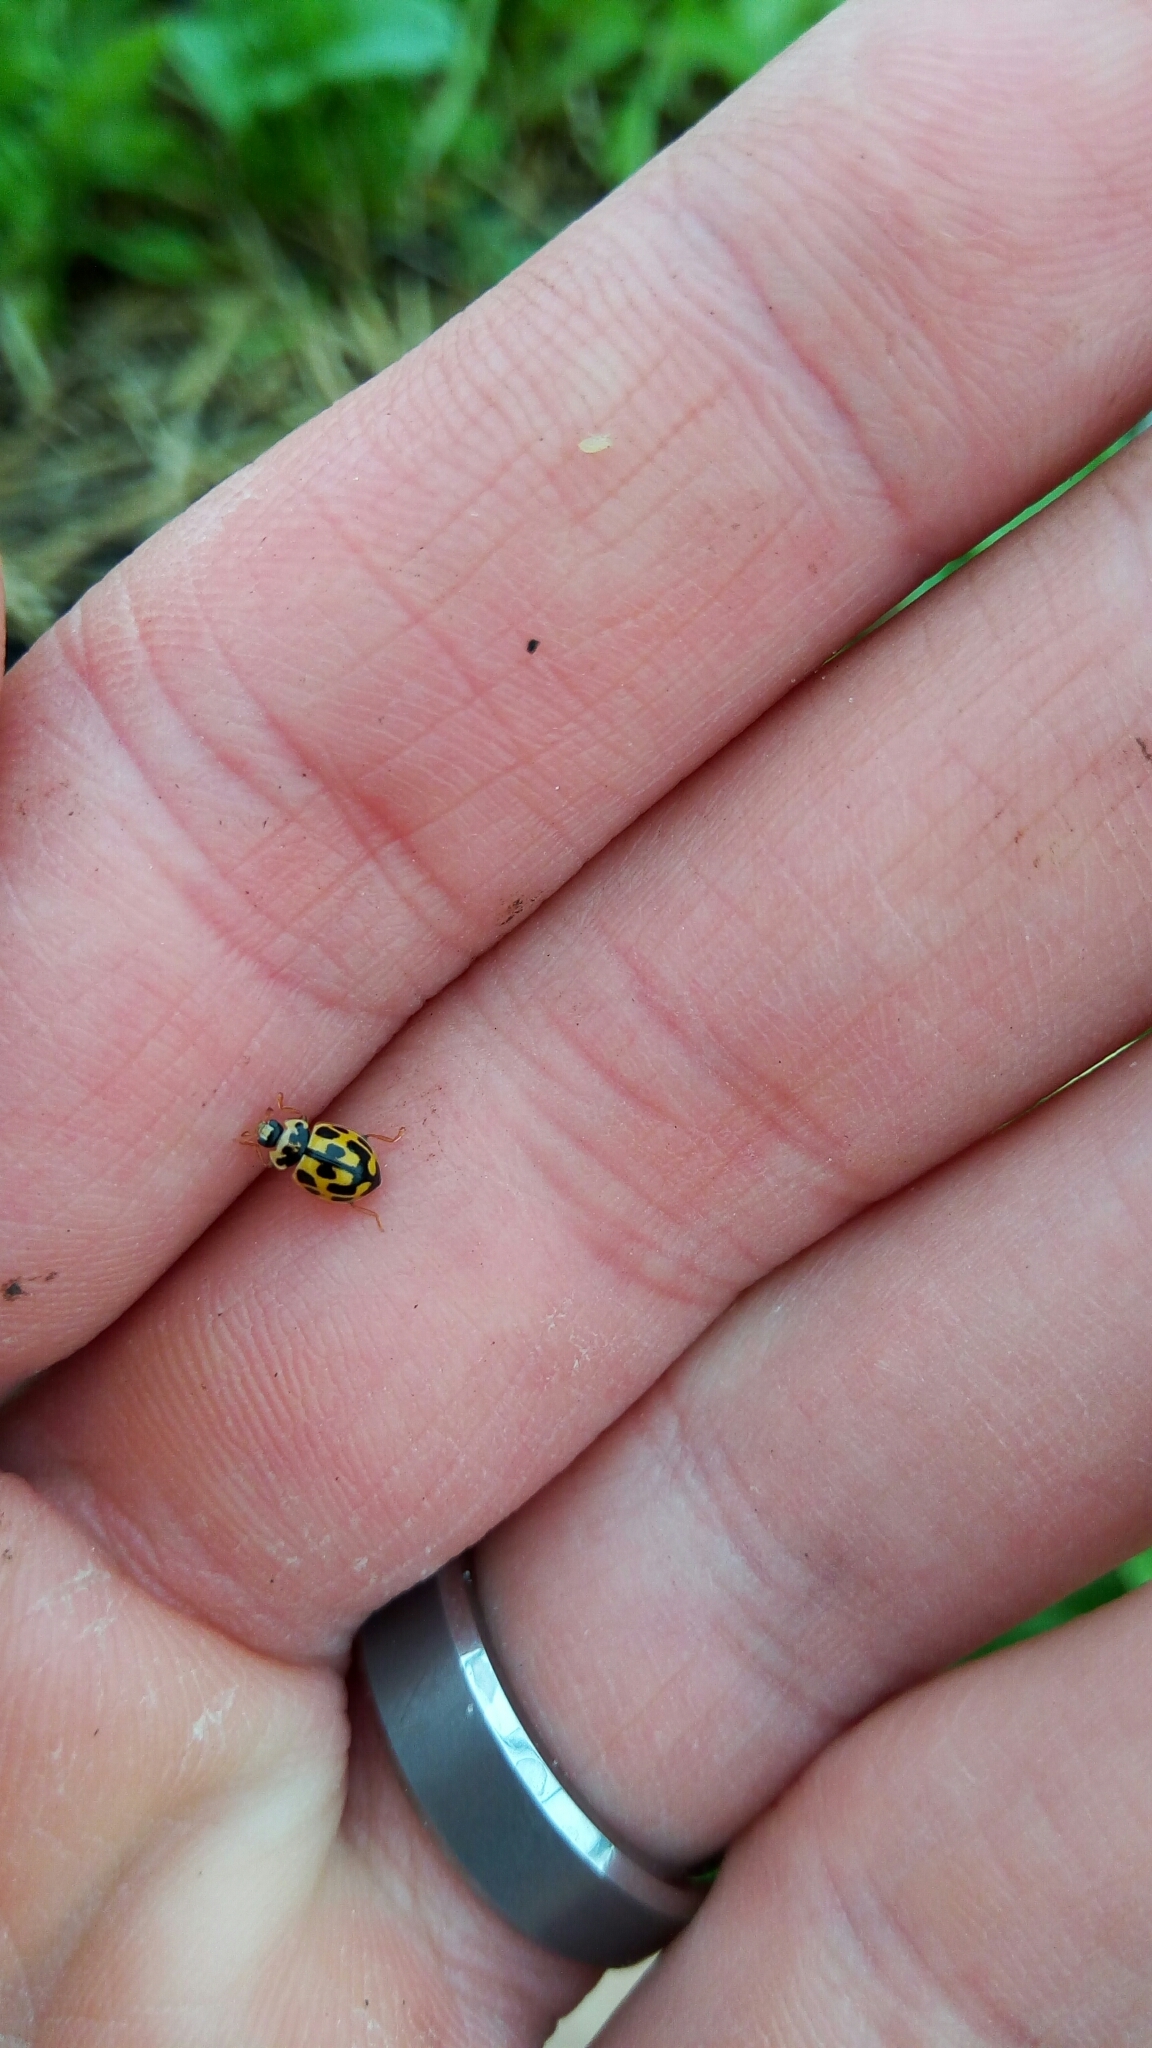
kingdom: Animalia
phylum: Arthropoda
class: Insecta
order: Coleoptera
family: Coccinellidae
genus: Propylaea
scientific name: Propylaea quatuordecimpunctata
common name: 14-spotted ladybird beetle
